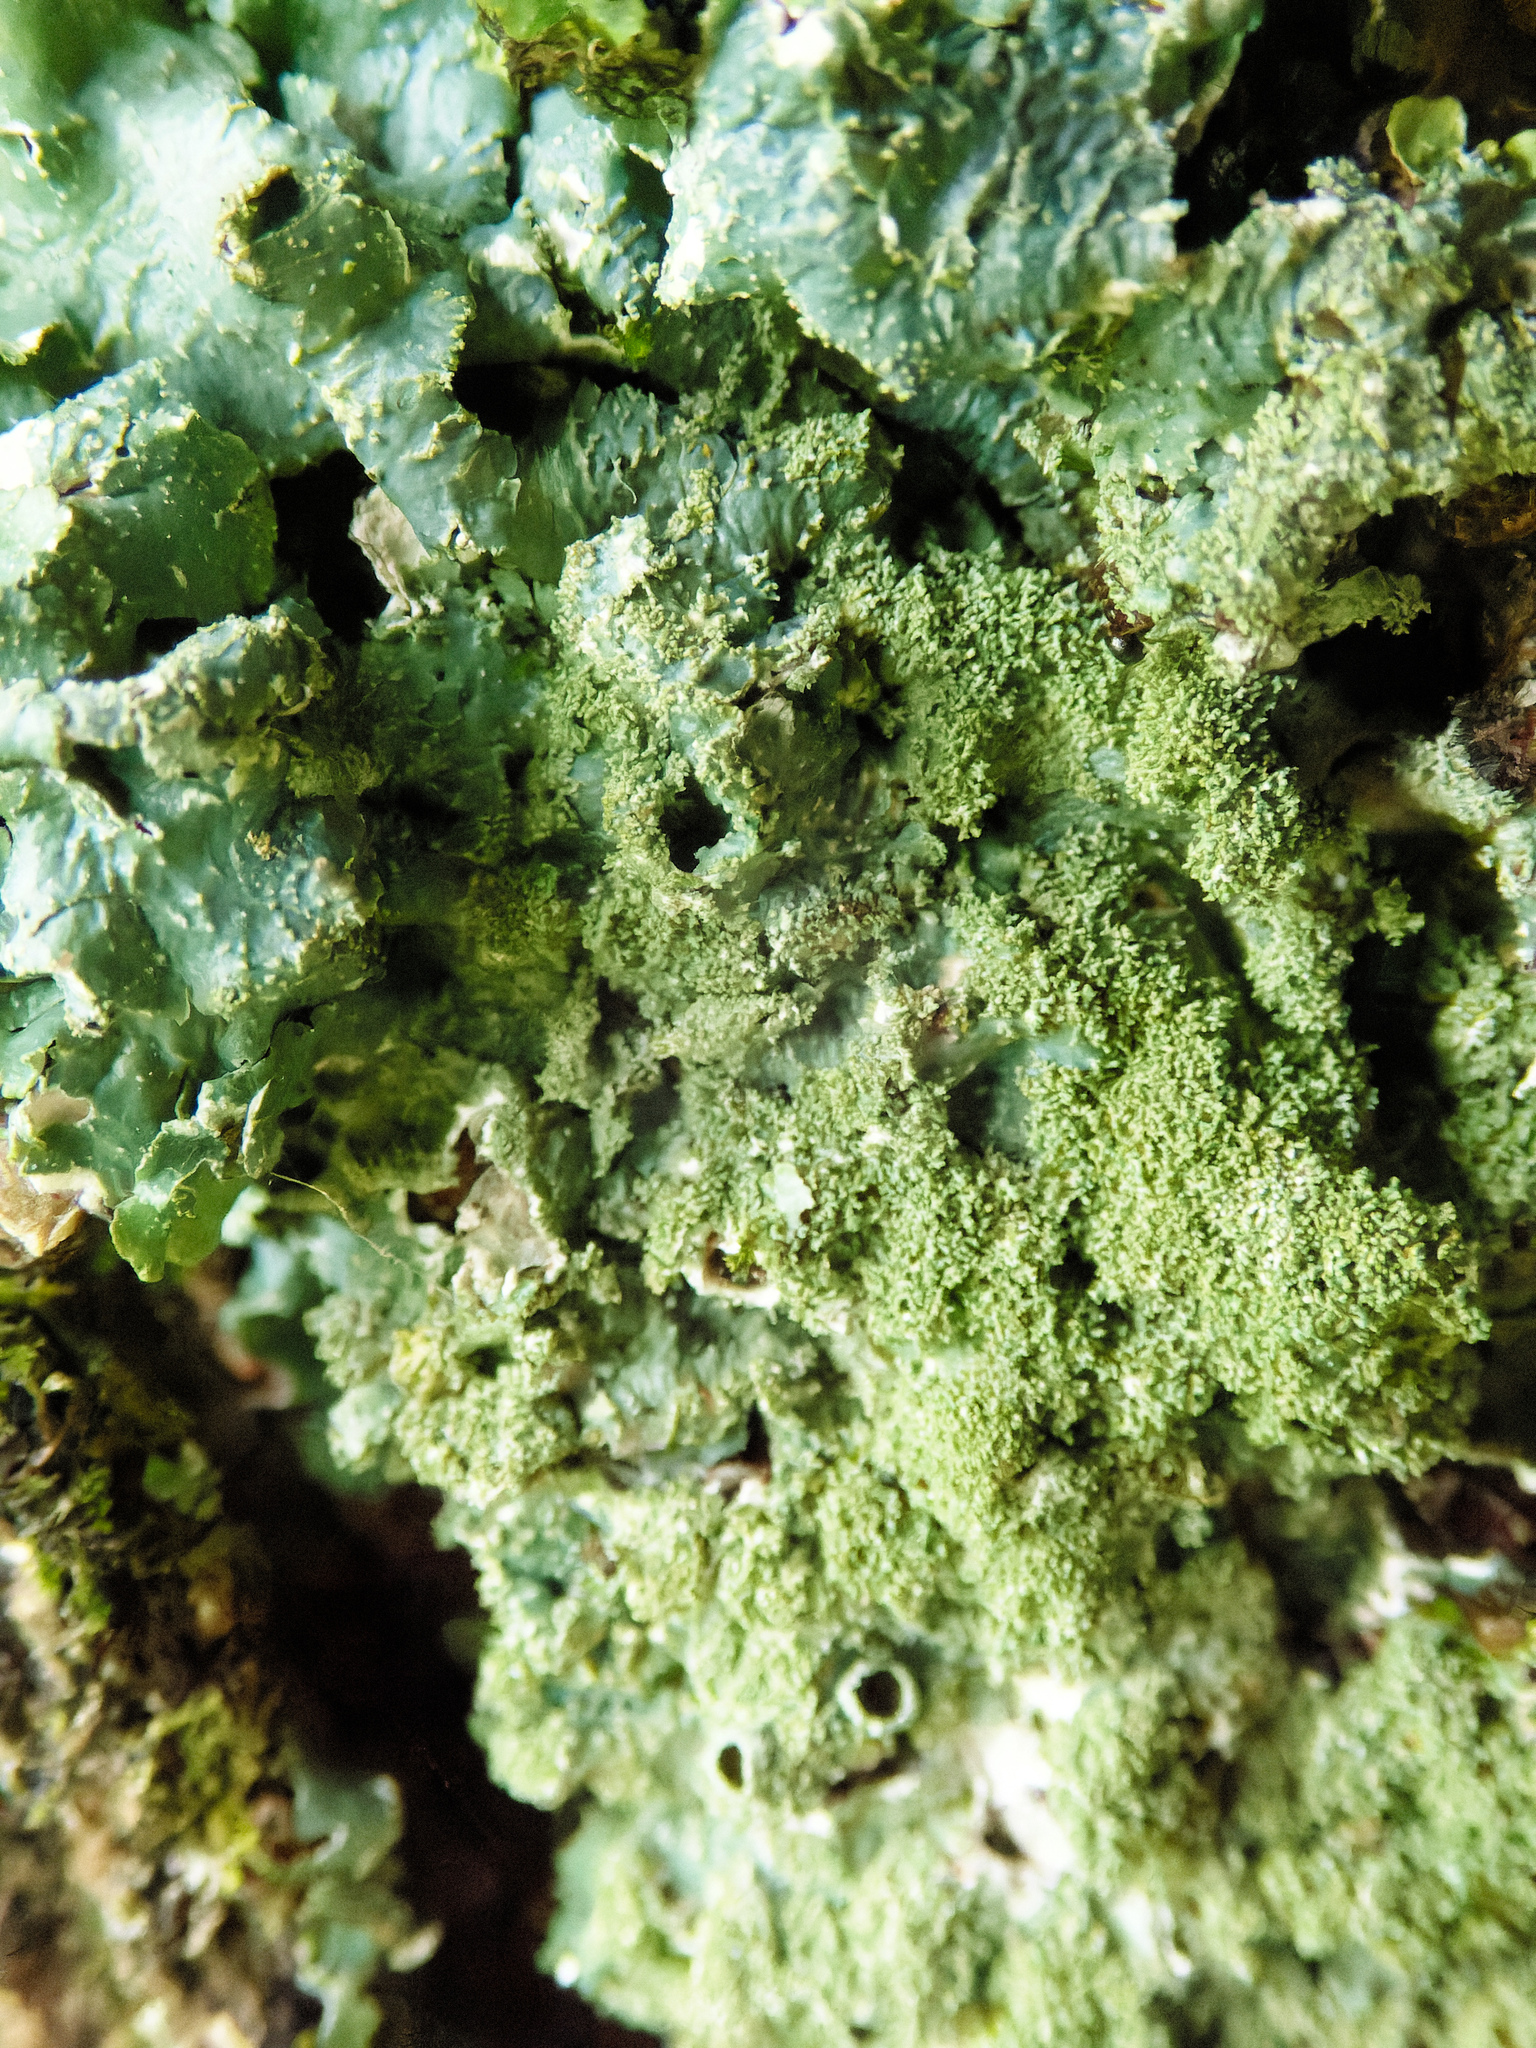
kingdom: Fungi
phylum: Ascomycota
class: Lecanoromycetes
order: Lecanorales
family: Parmeliaceae
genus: Punctelia
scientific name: Punctelia rudecta
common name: Rough speckled shield lichen
